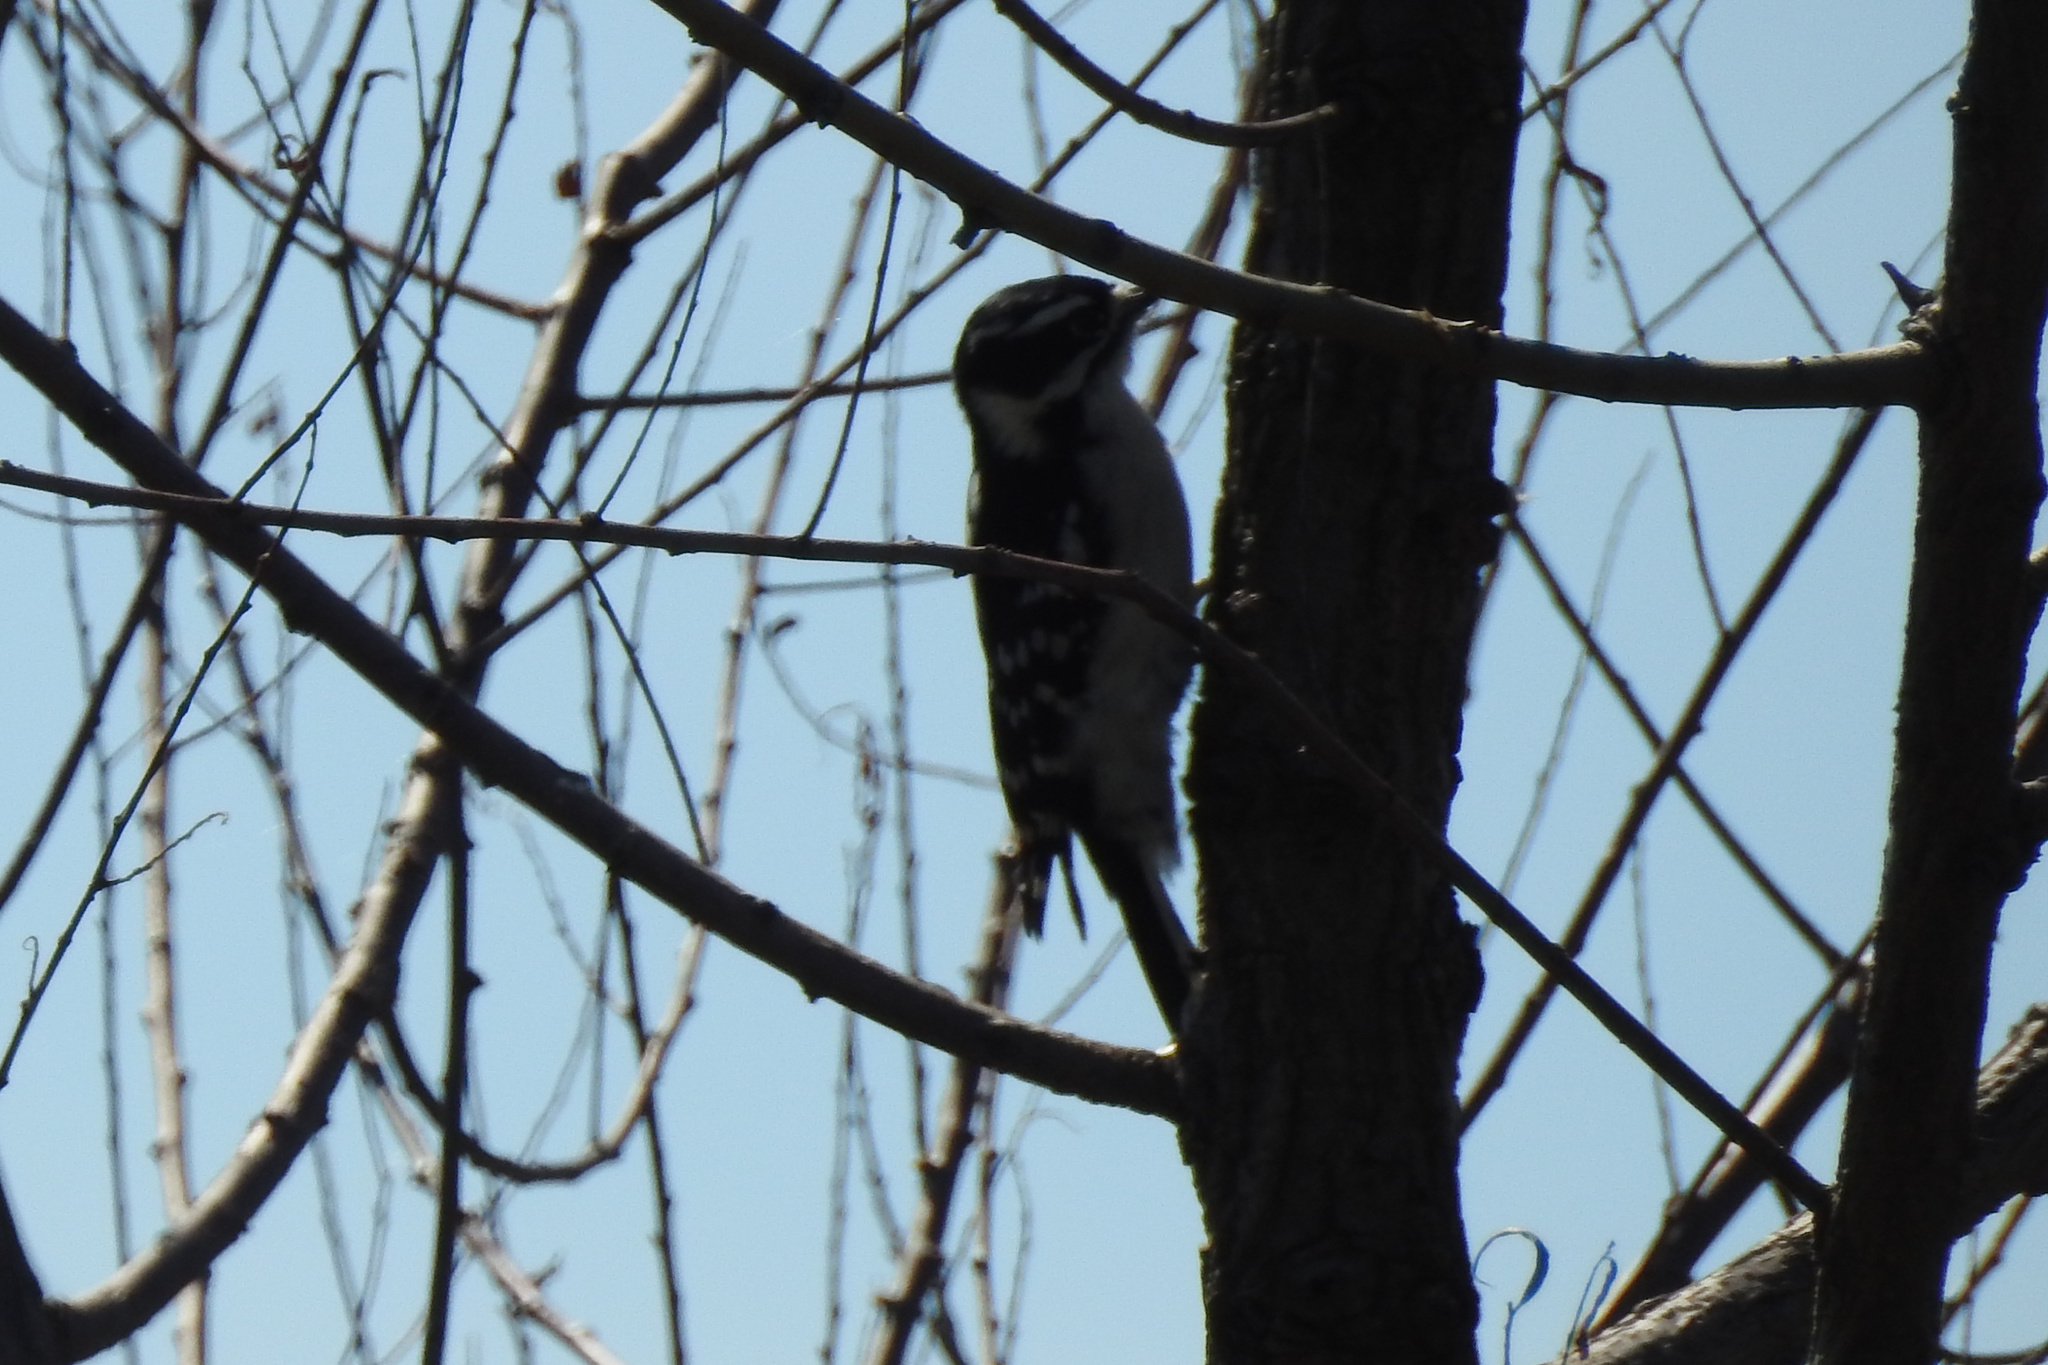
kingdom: Animalia
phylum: Chordata
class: Aves
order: Piciformes
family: Picidae
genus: Dryobates
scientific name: Dryobates pubescens
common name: Downy woodpecker
